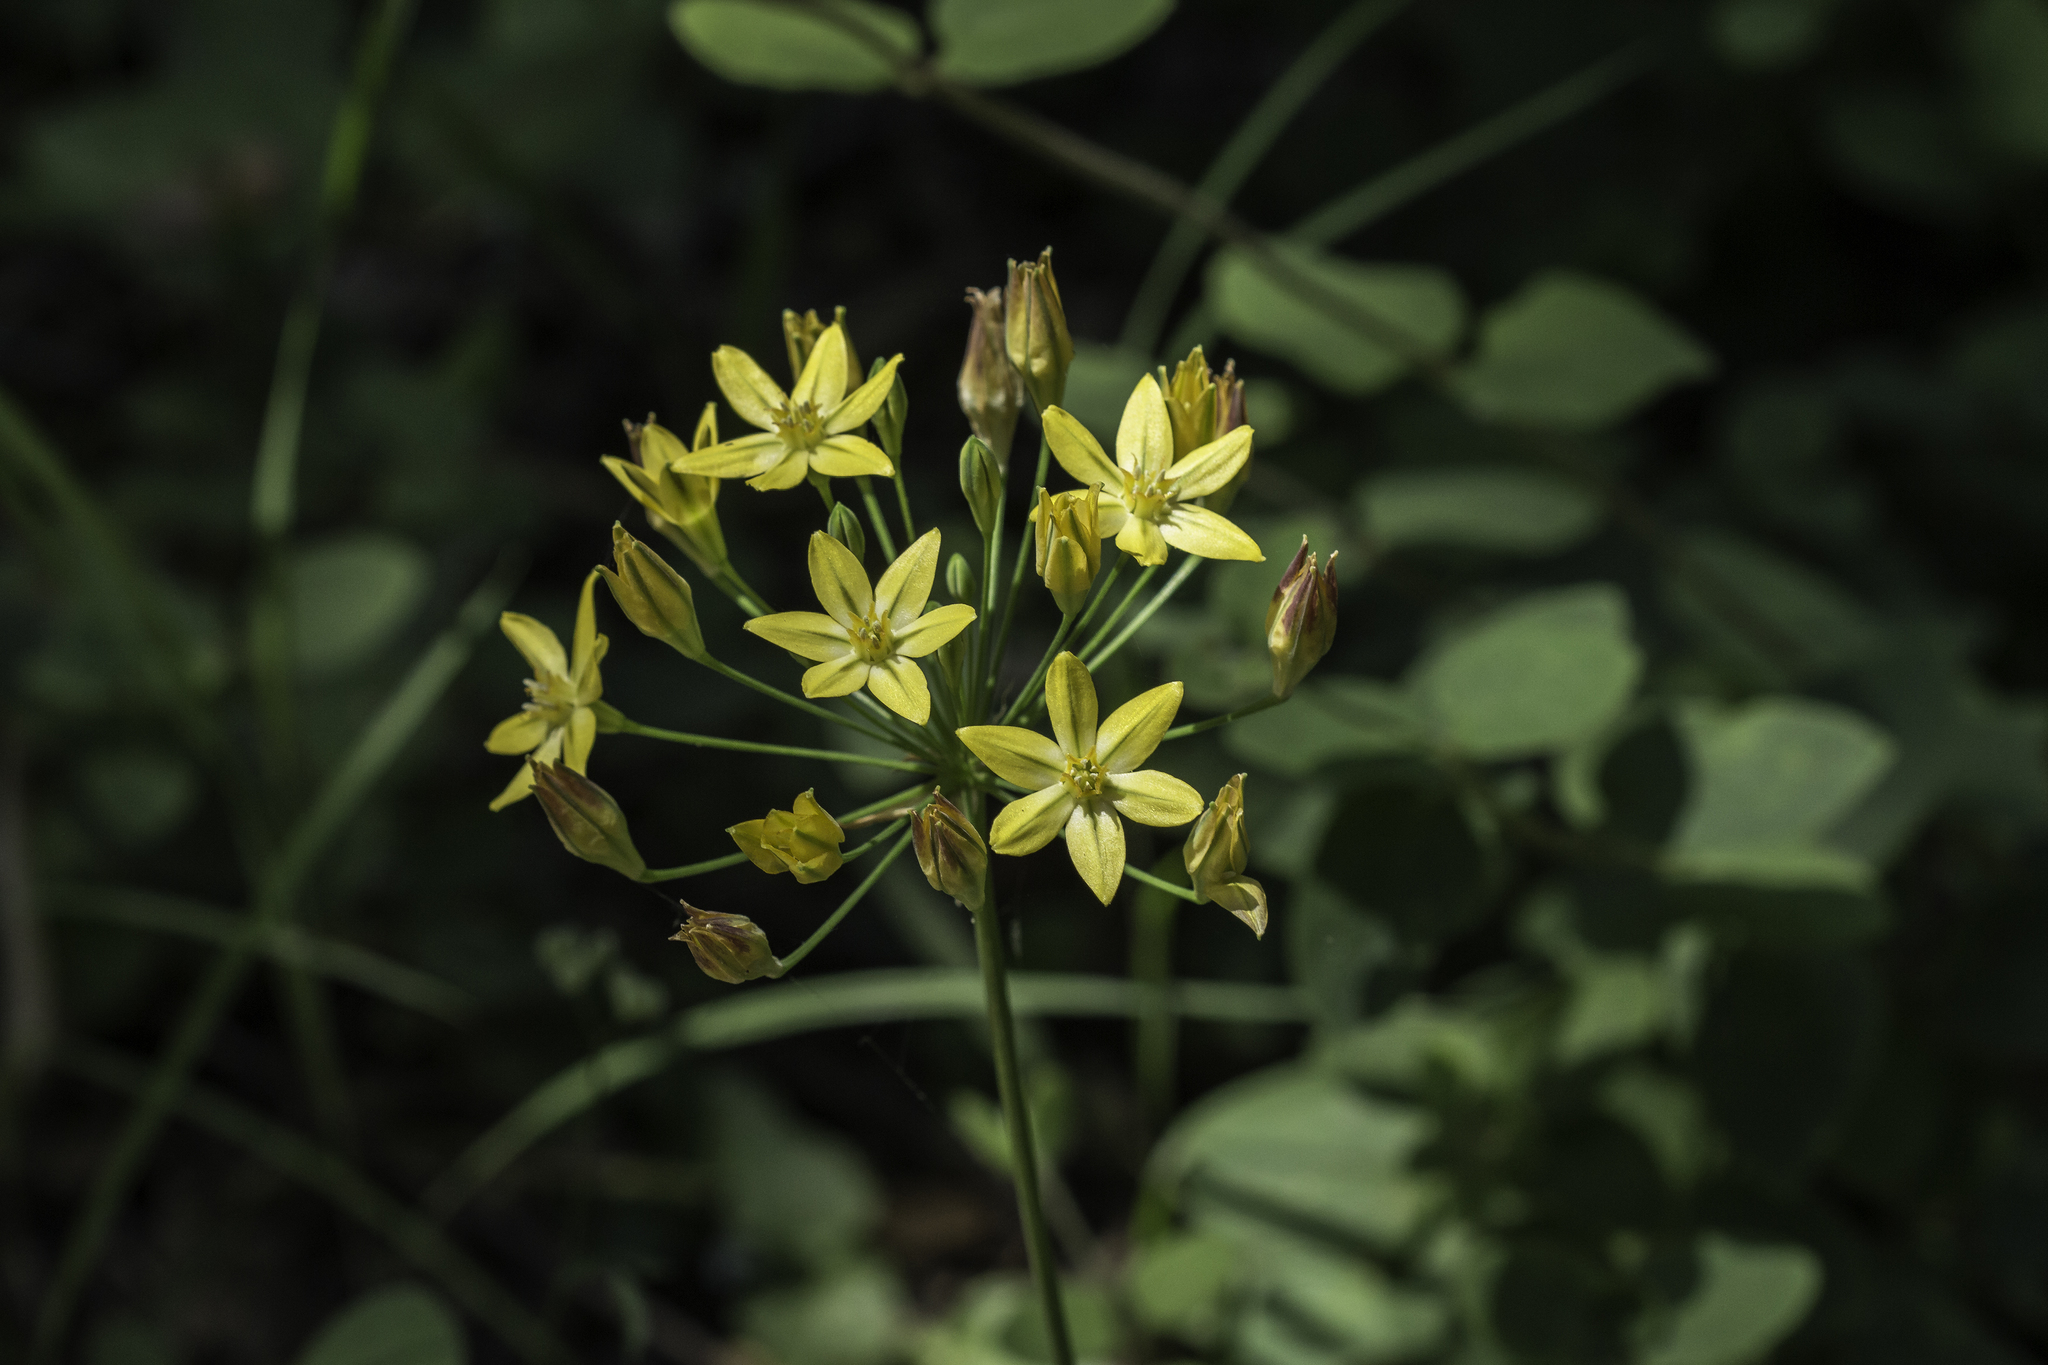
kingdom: Plantae
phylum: Tracheophyta
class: Liliopsida
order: Asparagales
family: Asparagaceae
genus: Triteleia
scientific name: Triteleia ixioides
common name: Yellow-brodiaea
